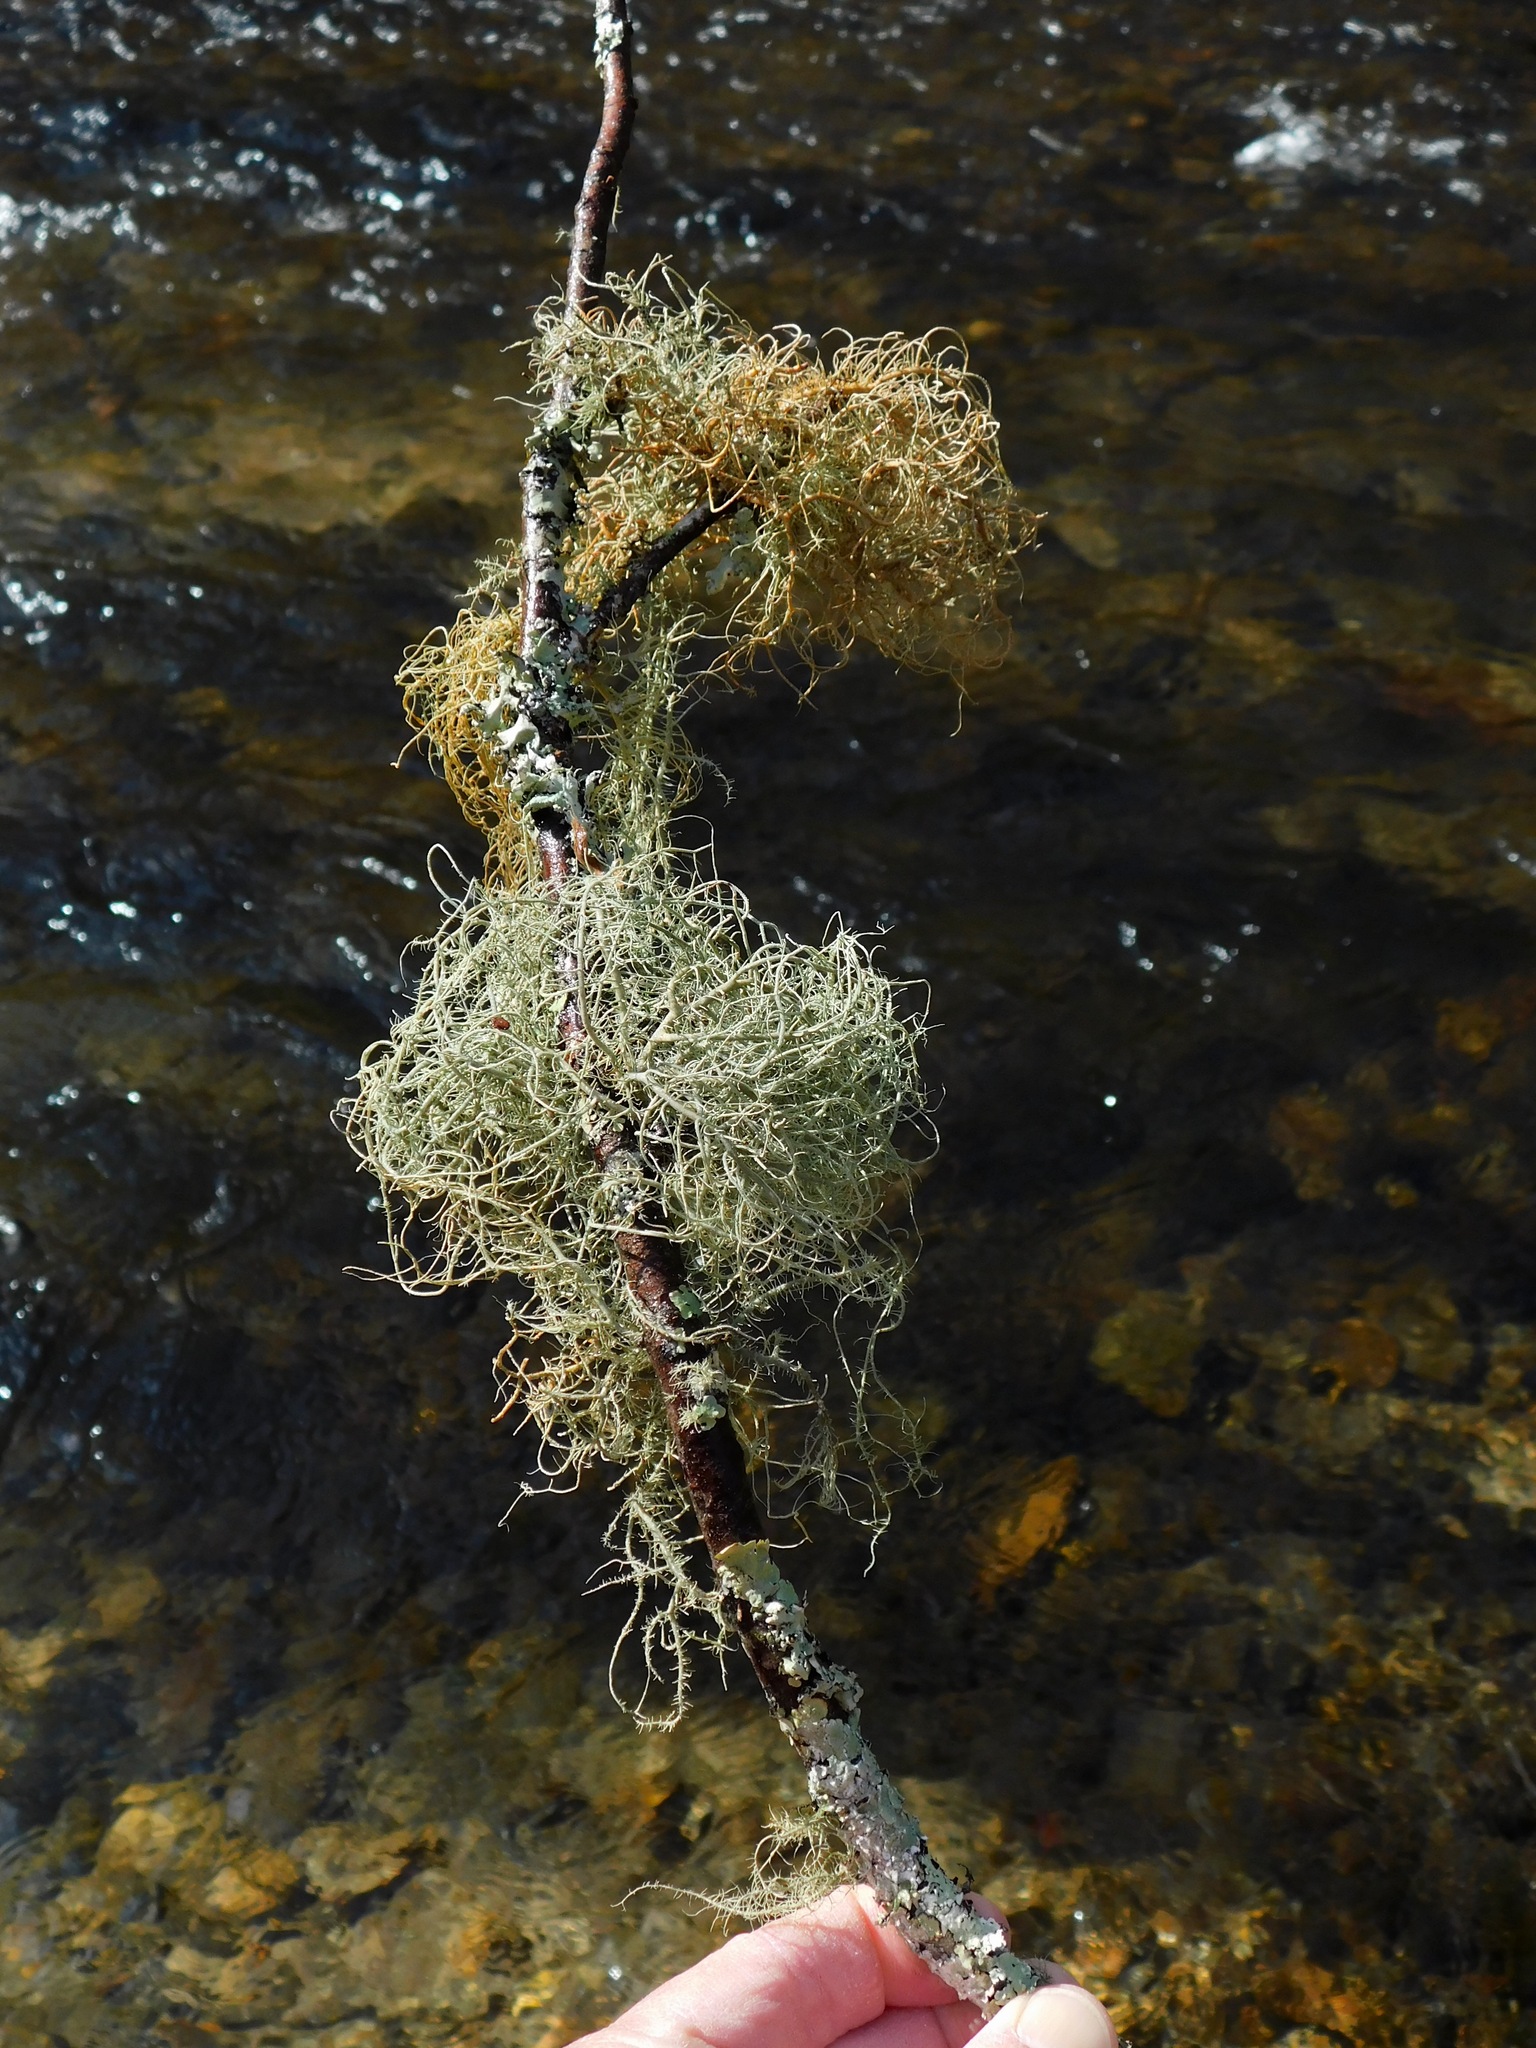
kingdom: Fungi
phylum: Ascomycota
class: Lecanoromycetes
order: Lecanorales
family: Parmeliaceae
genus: Usnea
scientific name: Usnea subscabrosa
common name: Beard lichen
